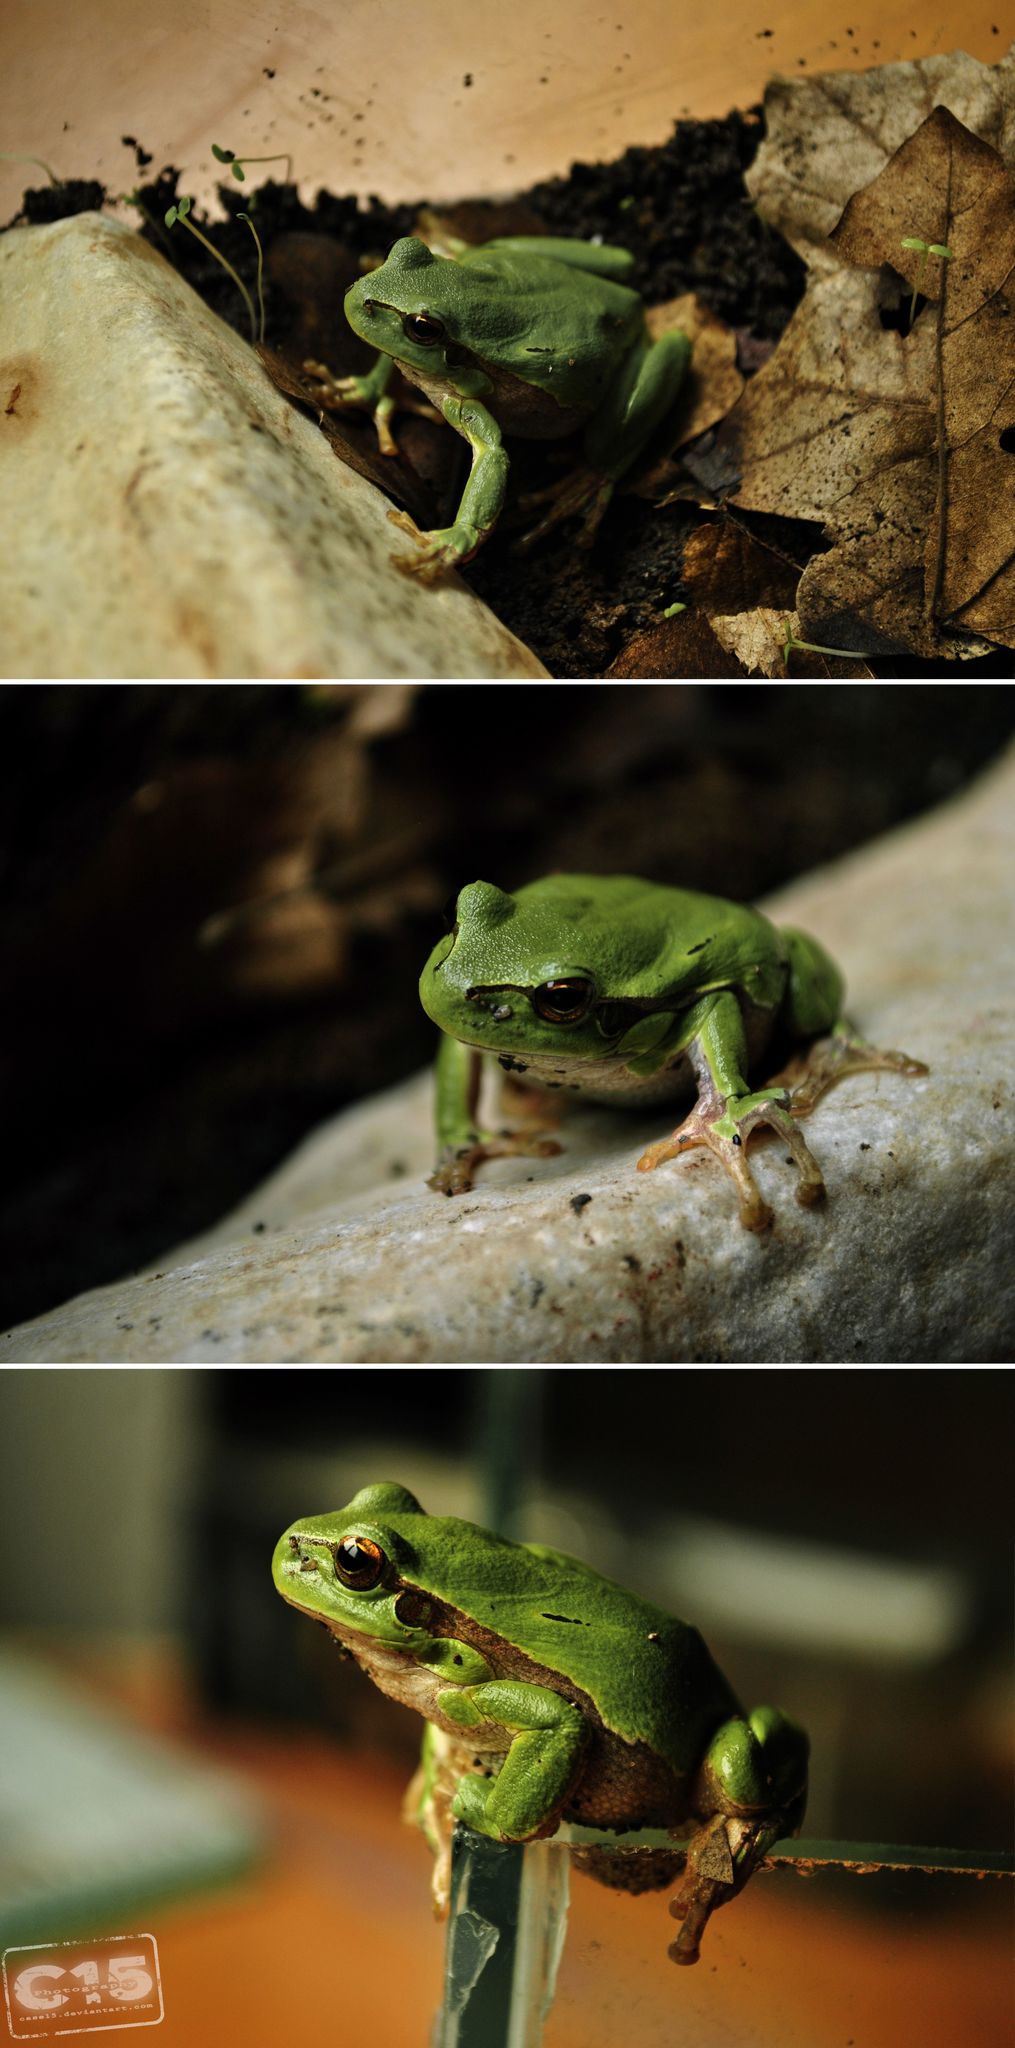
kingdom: Animalia
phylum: Chordata
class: Amphibia
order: Anura
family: Hylidae
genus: Hyla
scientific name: Hyla arborea
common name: Common tree frog
